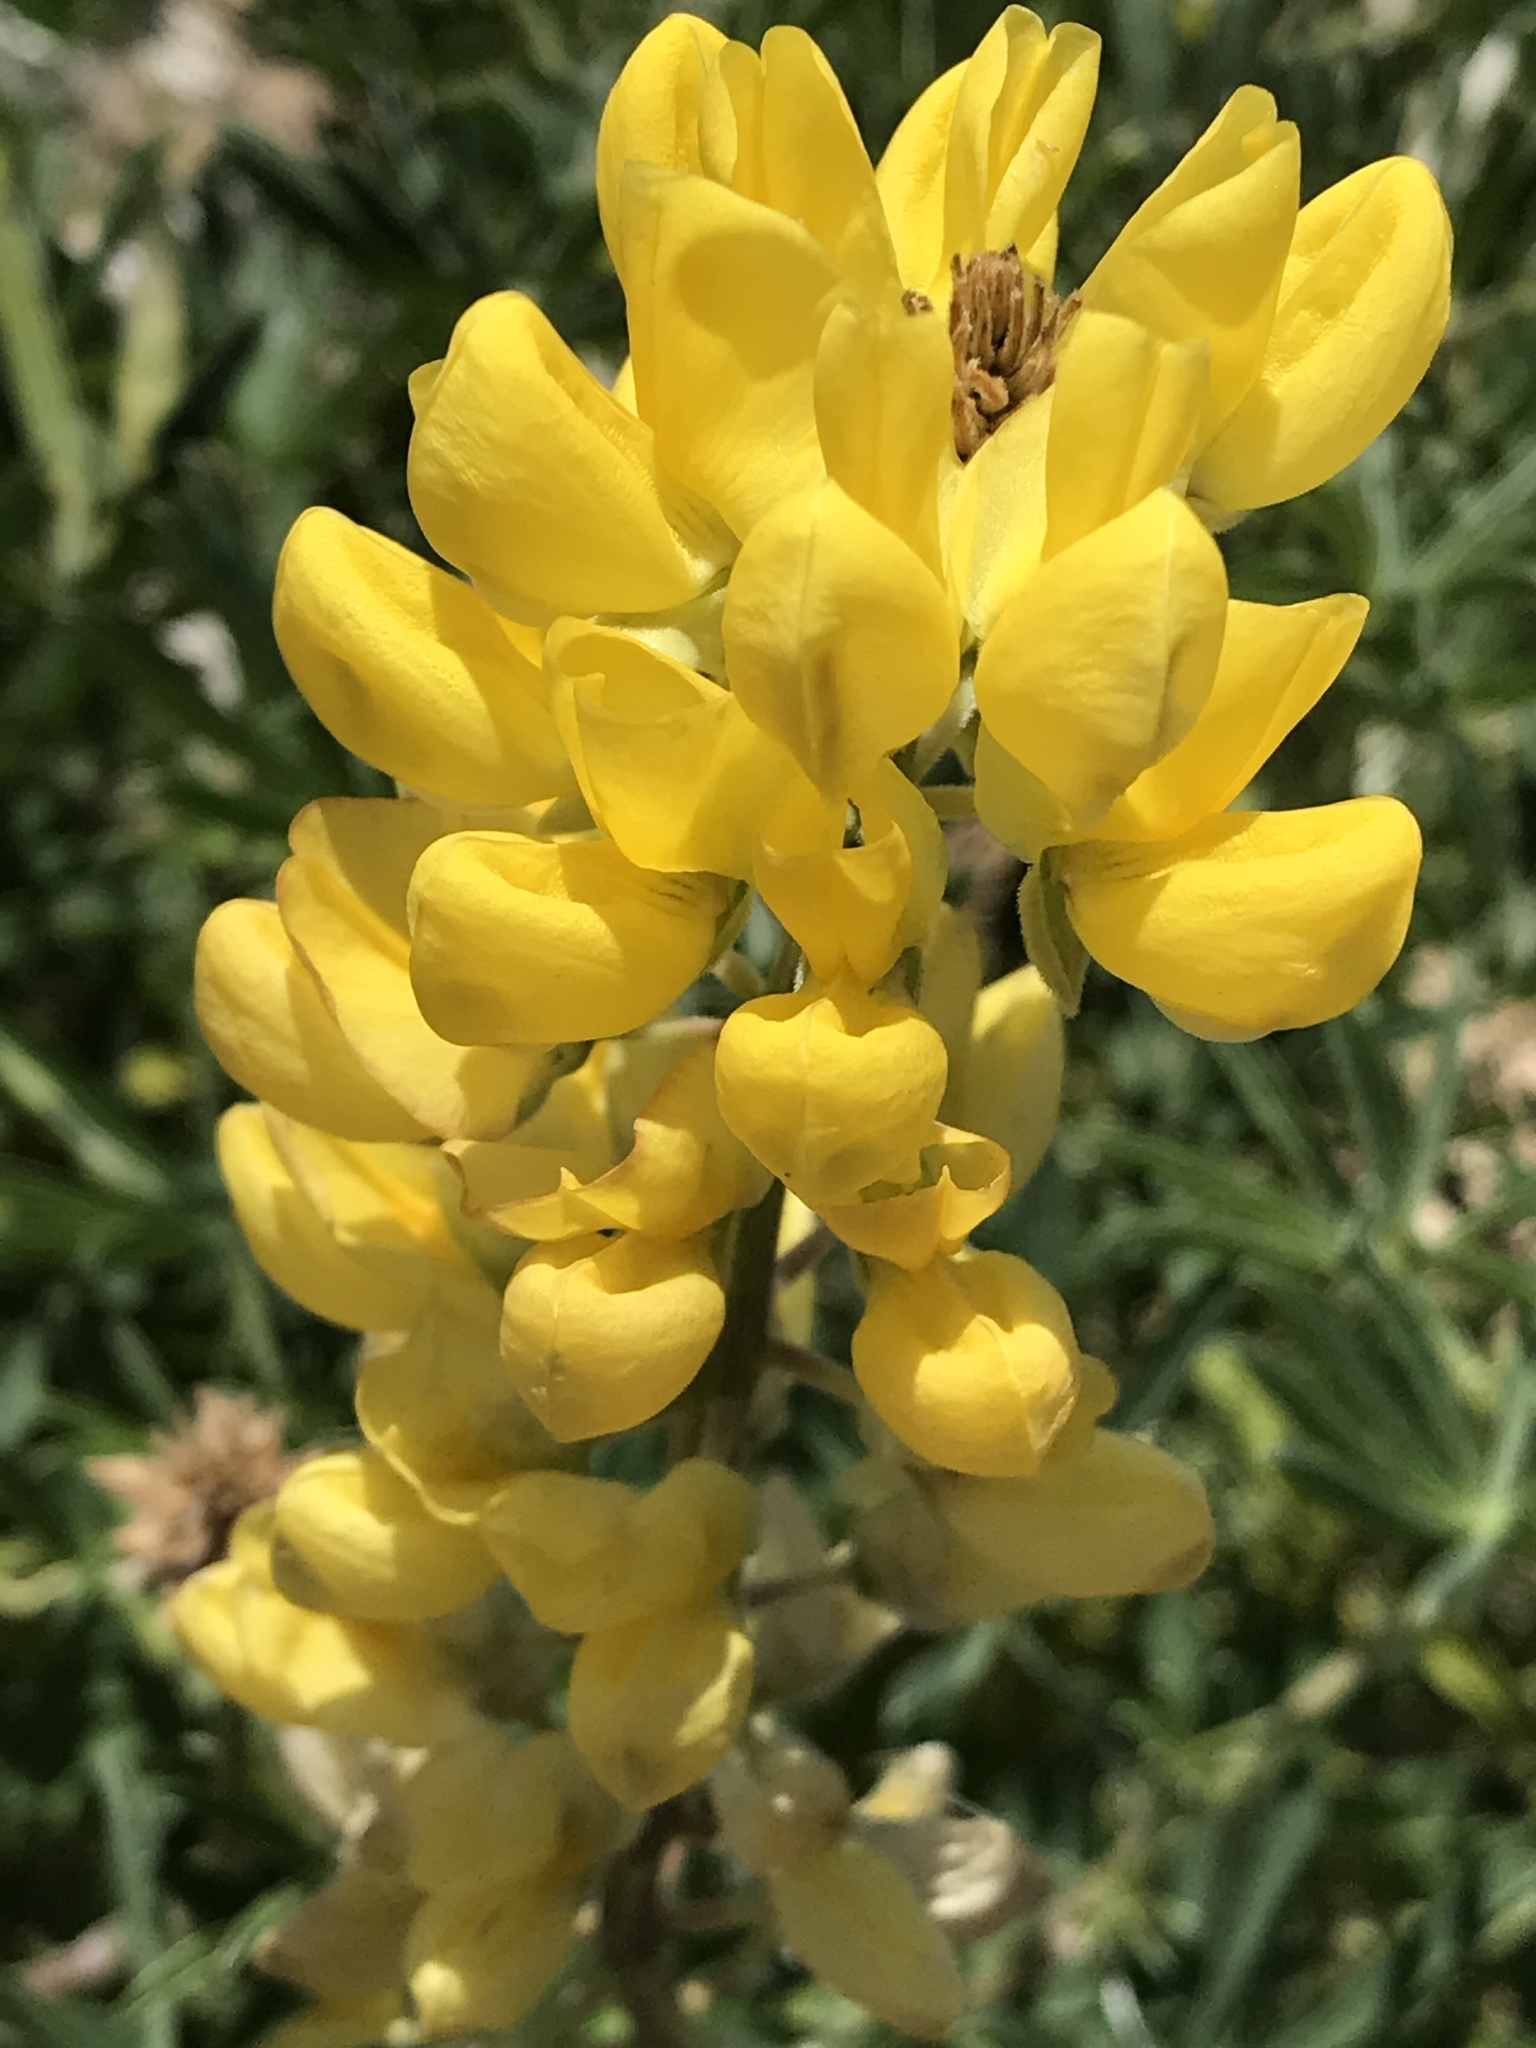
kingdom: Plantae
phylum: Tracheophyta
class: Magnoliopsida
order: Fabales
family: Fabaceae
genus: Lupinus
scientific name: Lupinus arboreus
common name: Yellow bush lupine
